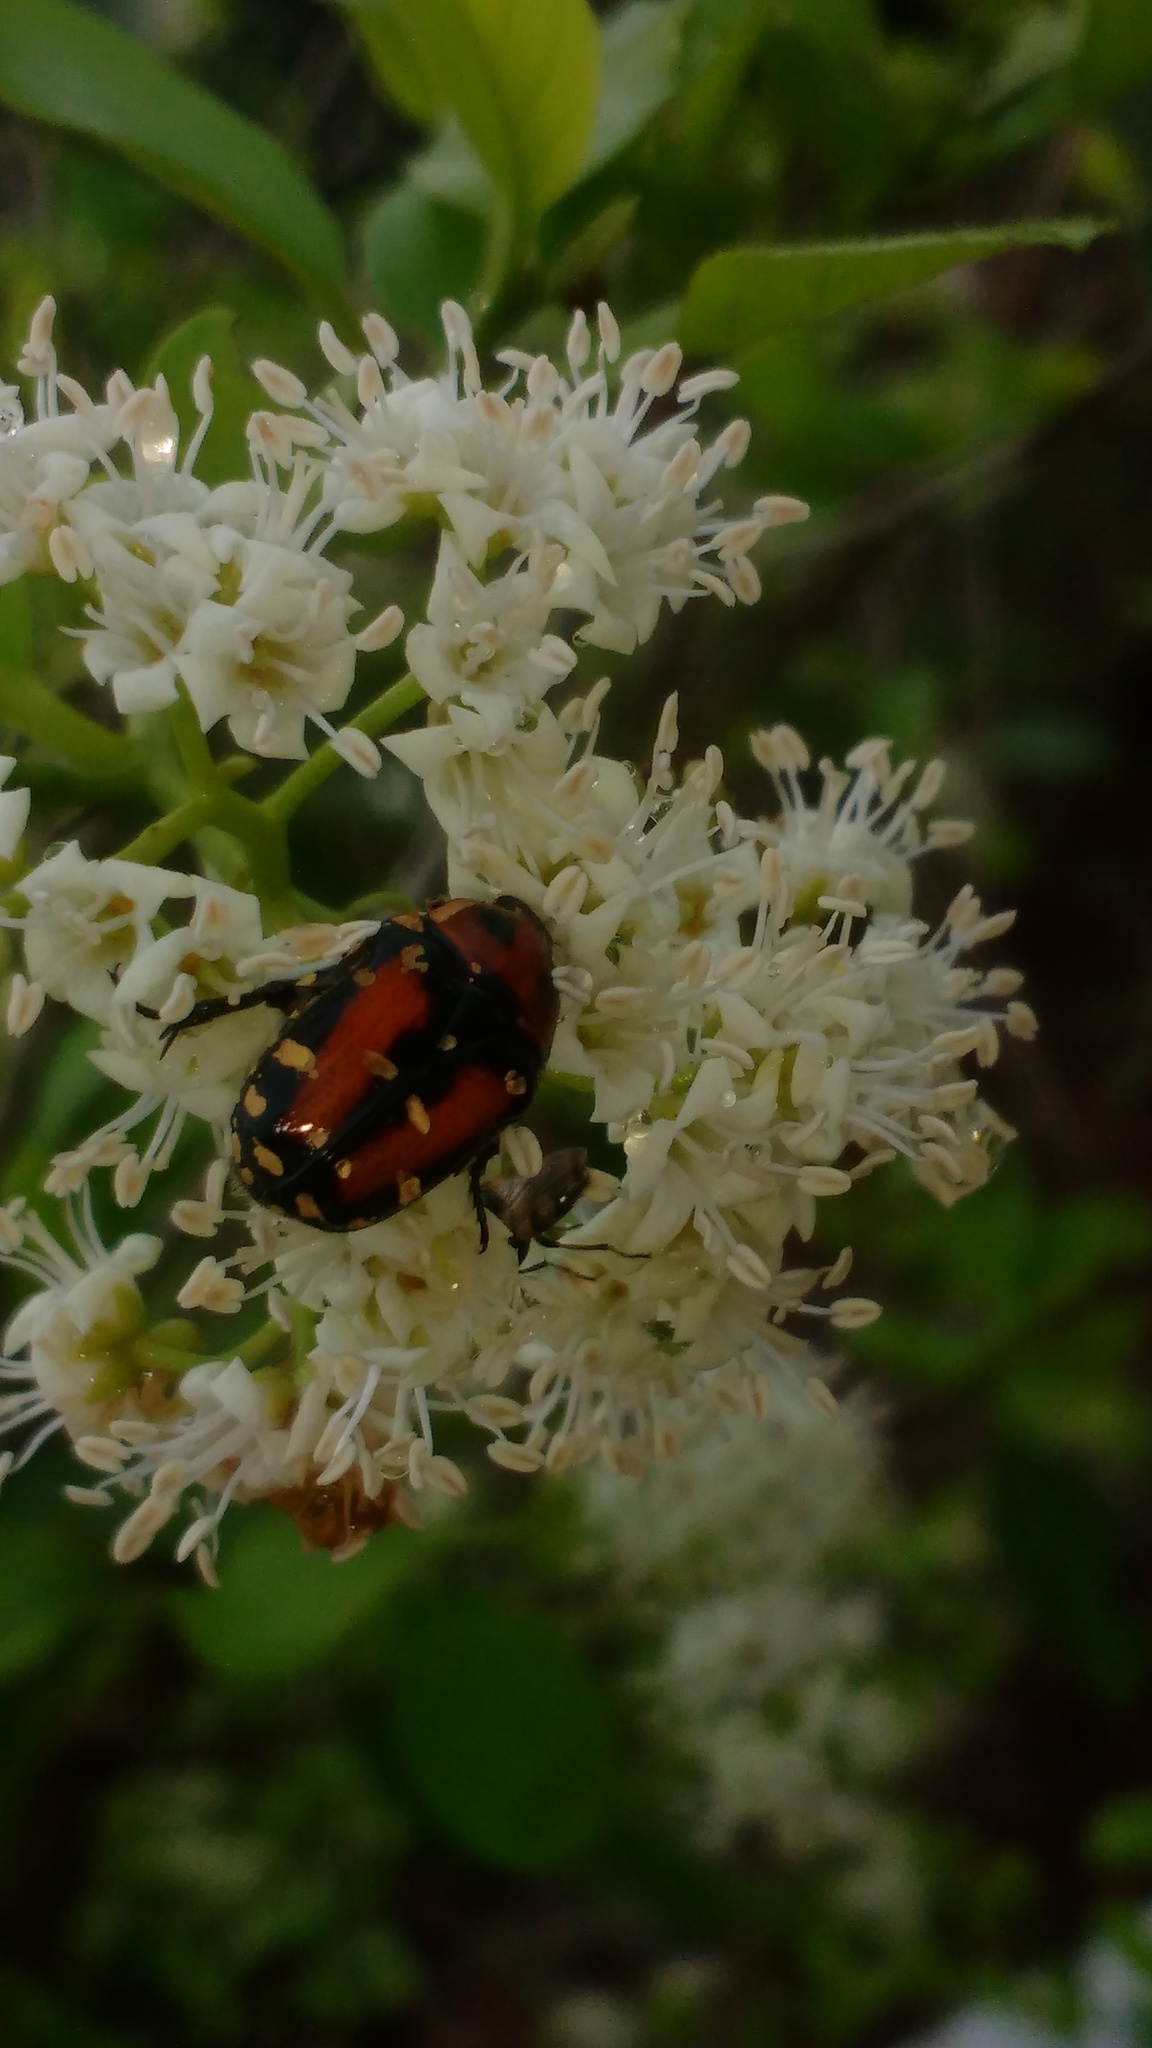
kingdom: Animalia
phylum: Arthropoda
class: Insecta
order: Coleoptera
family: Scarabaeidae
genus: Gametis
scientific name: Gametis versicolor
